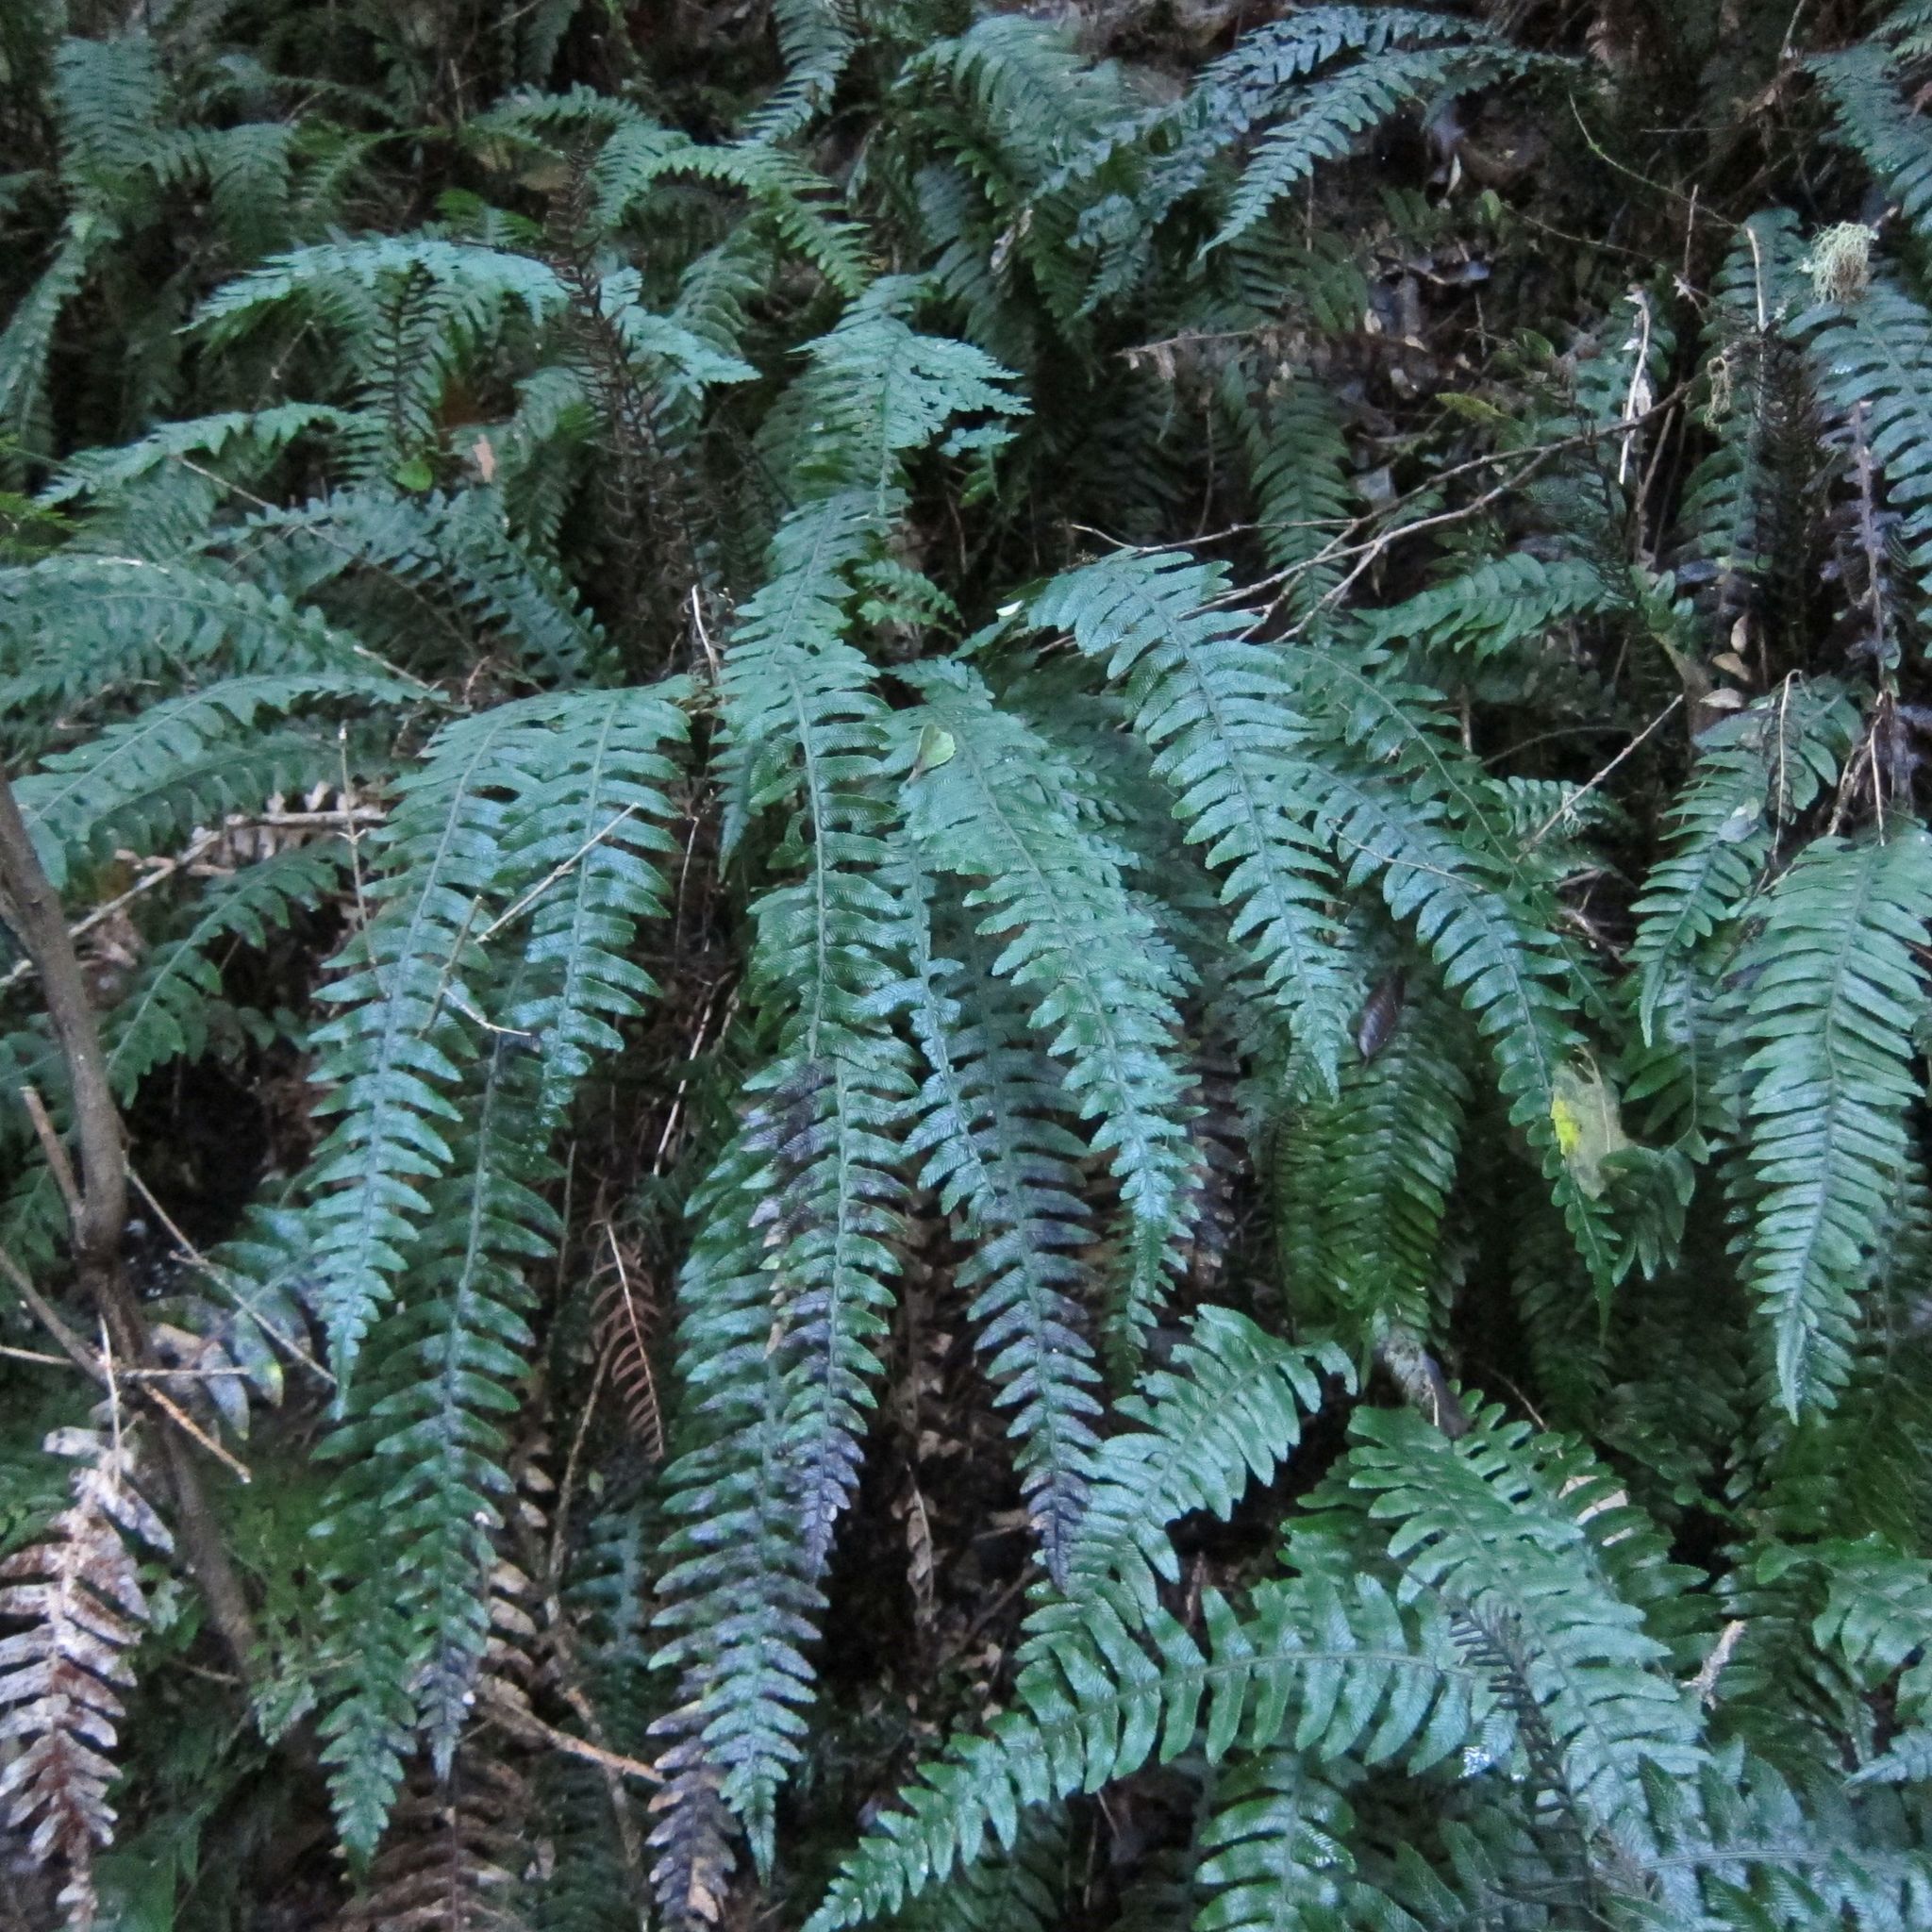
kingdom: Plantae
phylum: Tracheophyta
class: Polypodiopsida
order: Polypodiales
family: Blechnaceae
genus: Austroblechnum
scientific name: Austroblechnum lanceolatum
